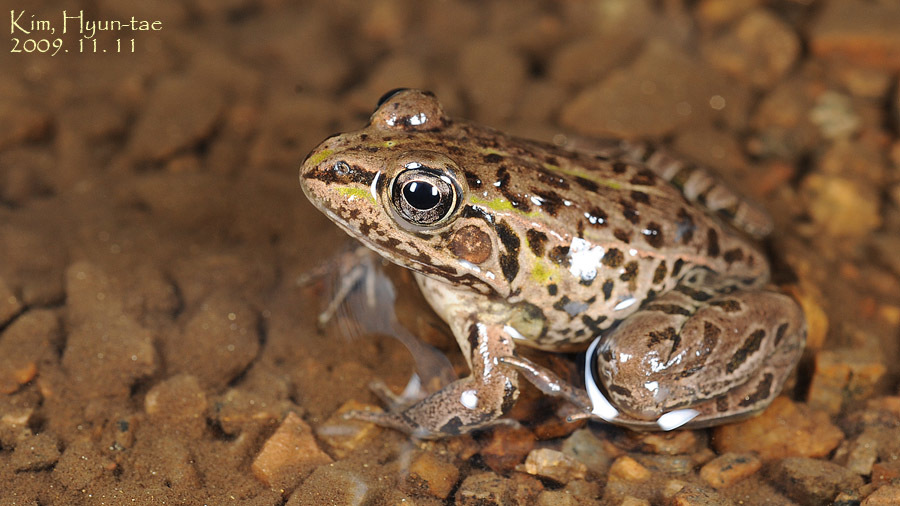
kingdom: Animalia
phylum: Chordata
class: Amphibia
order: Anura
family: Ranidae
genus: Pelophylax
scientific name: Pelophylax nigromaculatus
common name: Black-spotted pond frog
